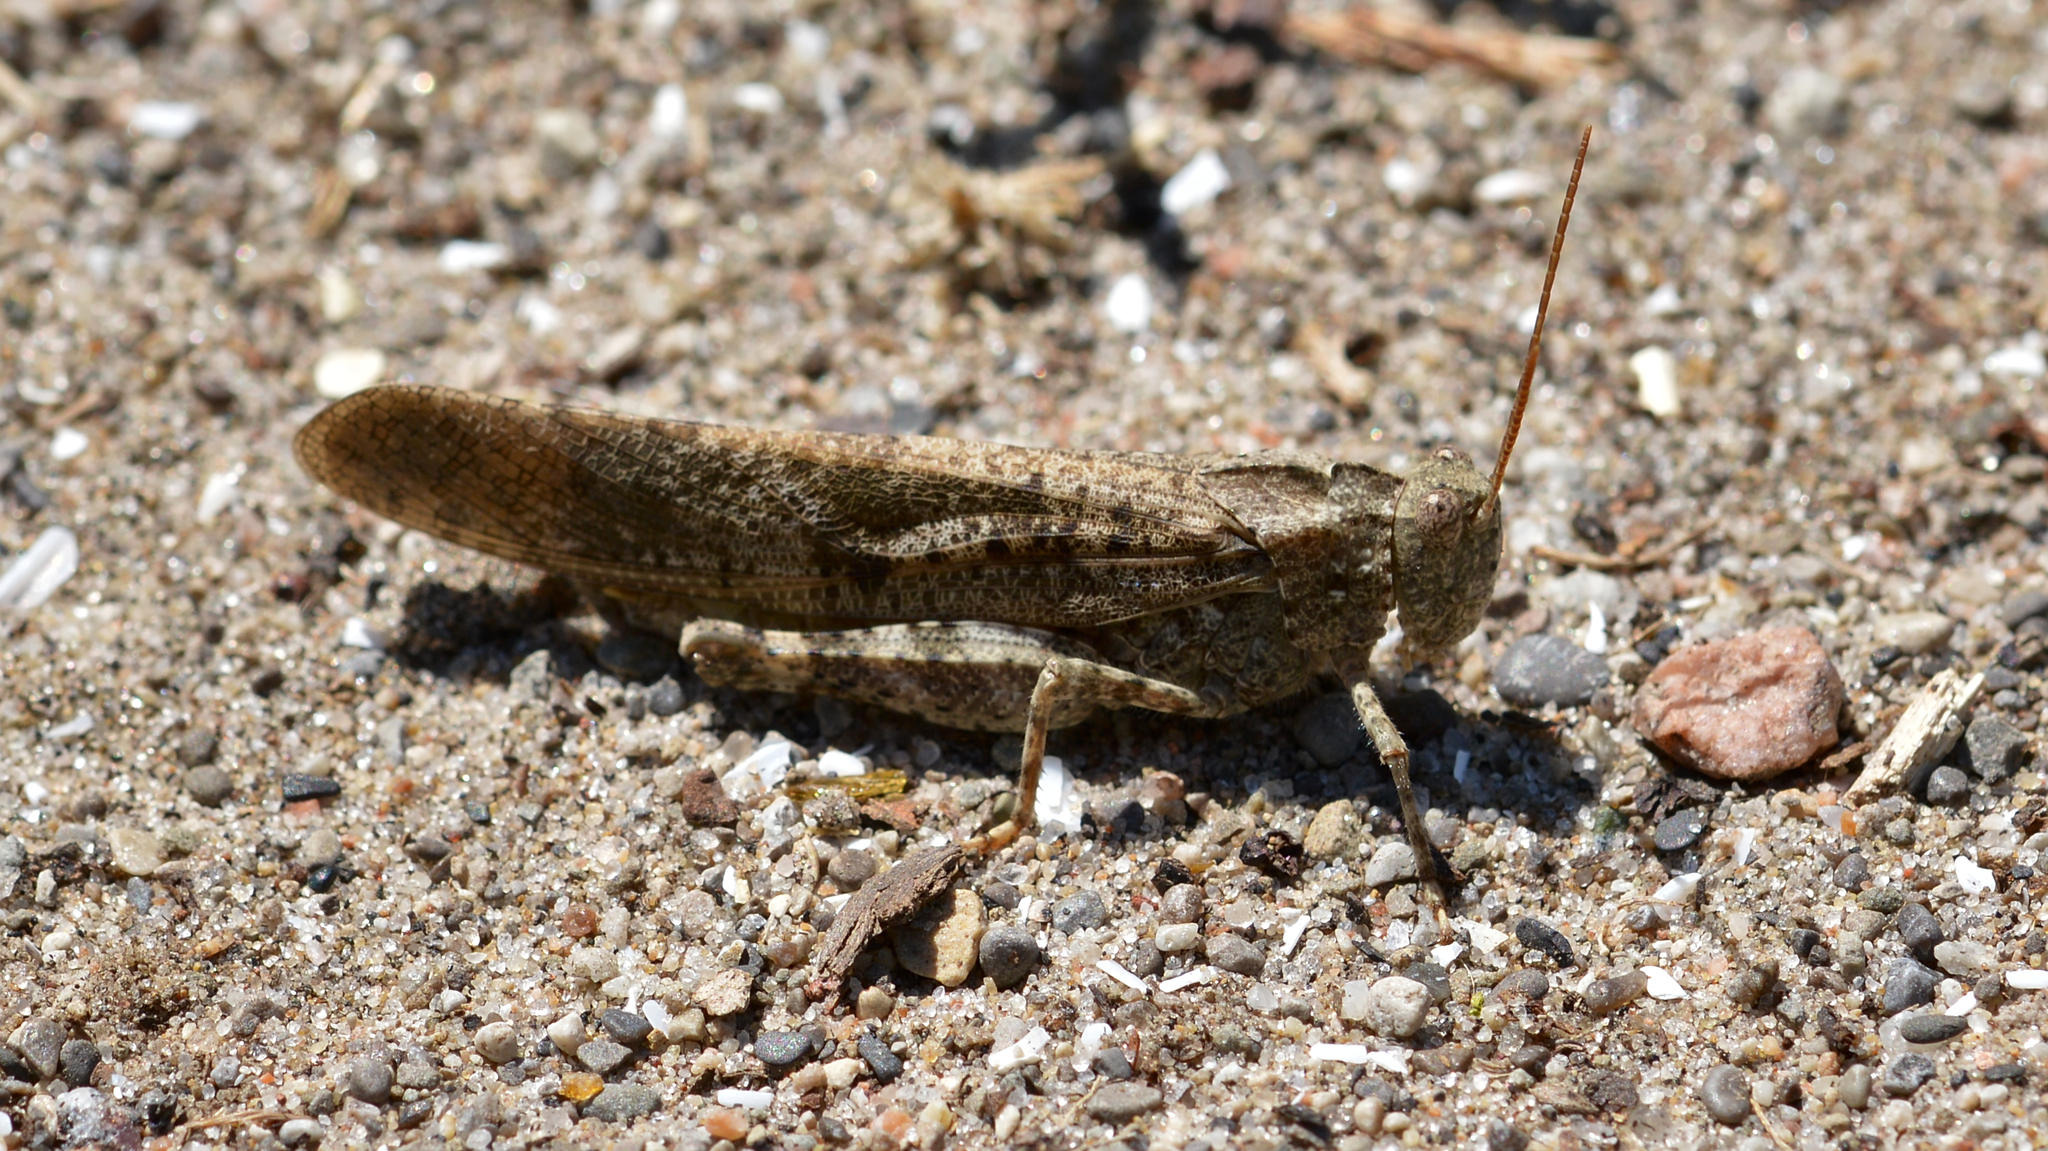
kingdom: Animalia
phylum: Arthropoda
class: Insecta
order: Orthoptera
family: Acrididae
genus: Dissosteira
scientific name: Dissosteira carolina
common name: Carolina grasshopper
